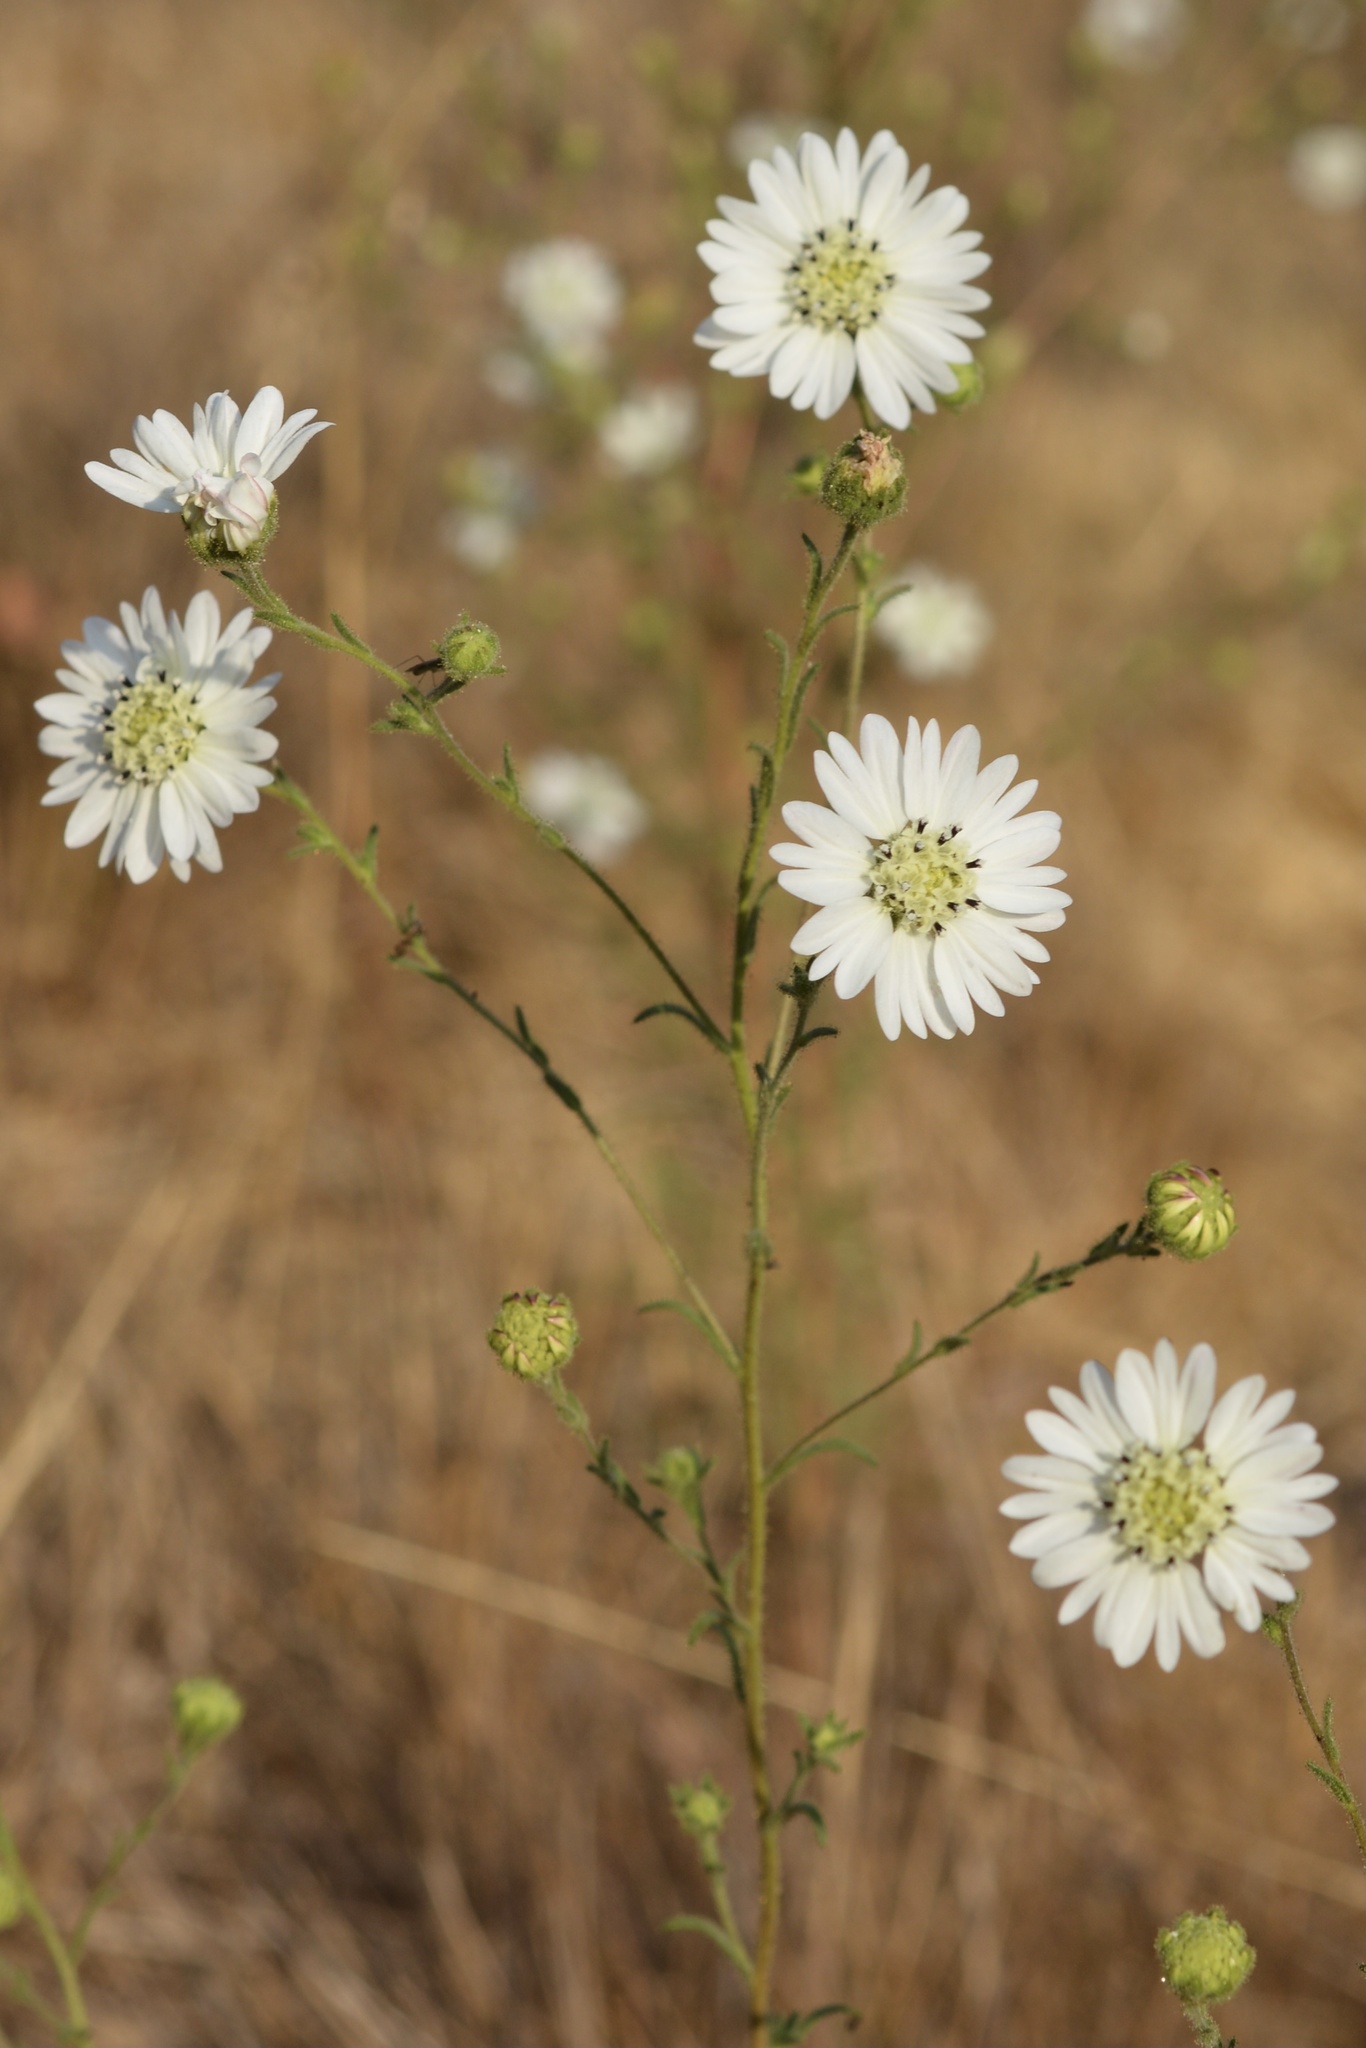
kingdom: Plantae
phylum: Tracheophyta
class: Magnoliopsida
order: Asterales
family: Asteraceae
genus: Hemizonia
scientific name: Hemizonia congesta
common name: Hayfield tarweed
